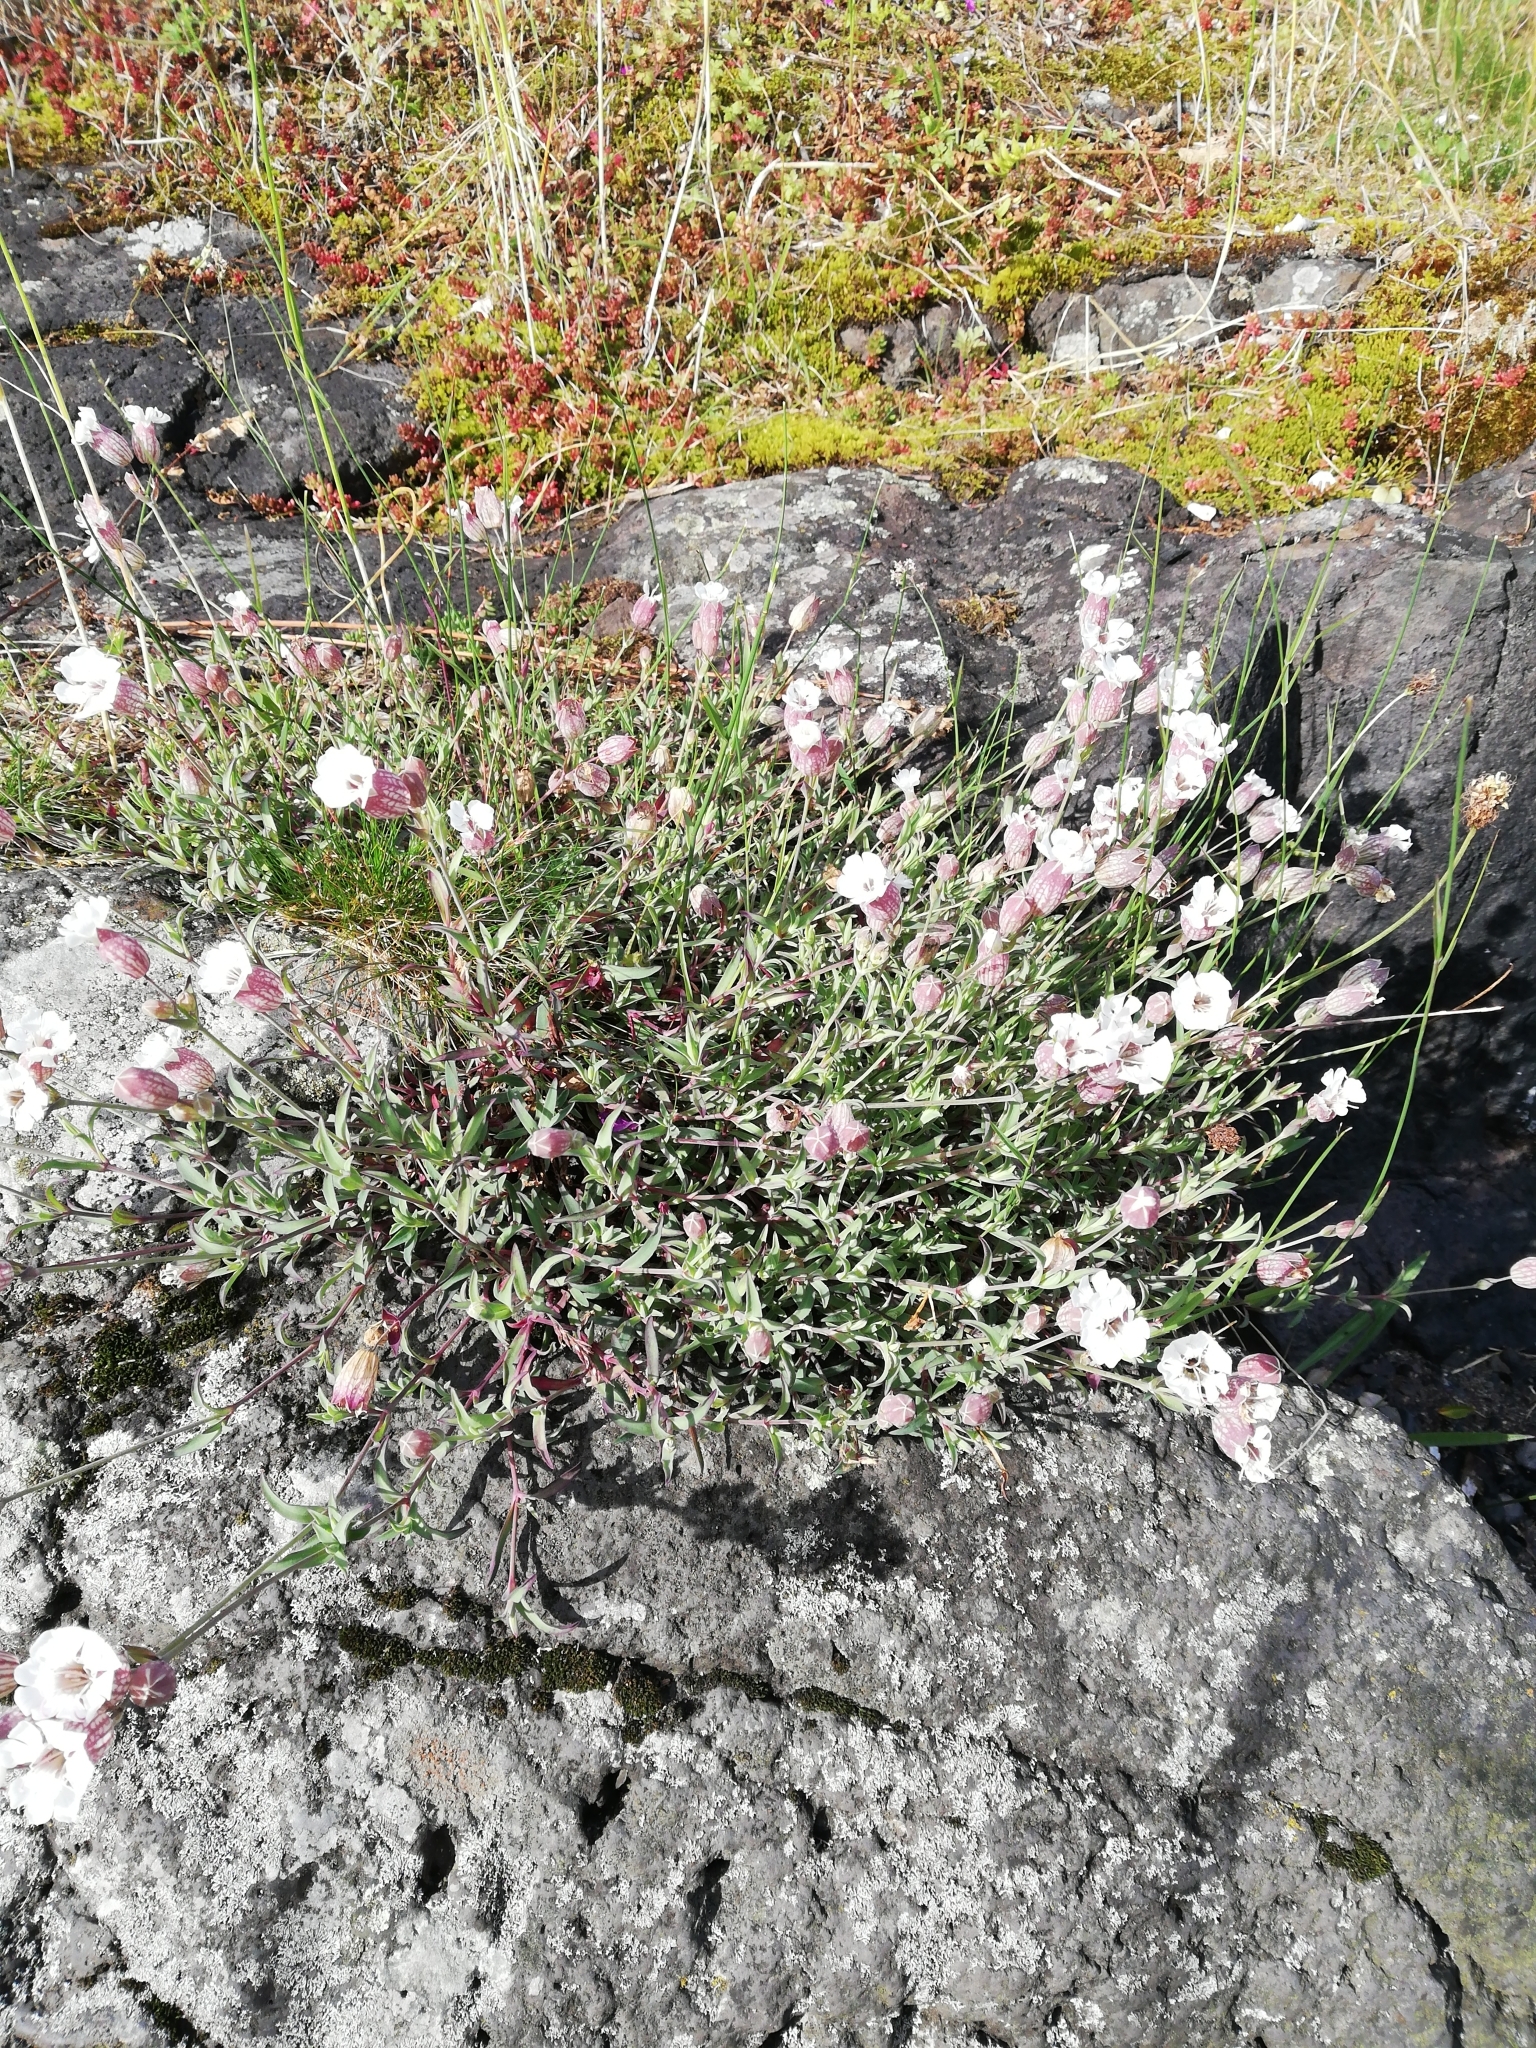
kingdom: Plantae
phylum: Tracheophyta
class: Magnoliopsida
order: Caryophyllales
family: Caryophyllaceae
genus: Silene
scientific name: Silene vulgaris
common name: Bladder campion
